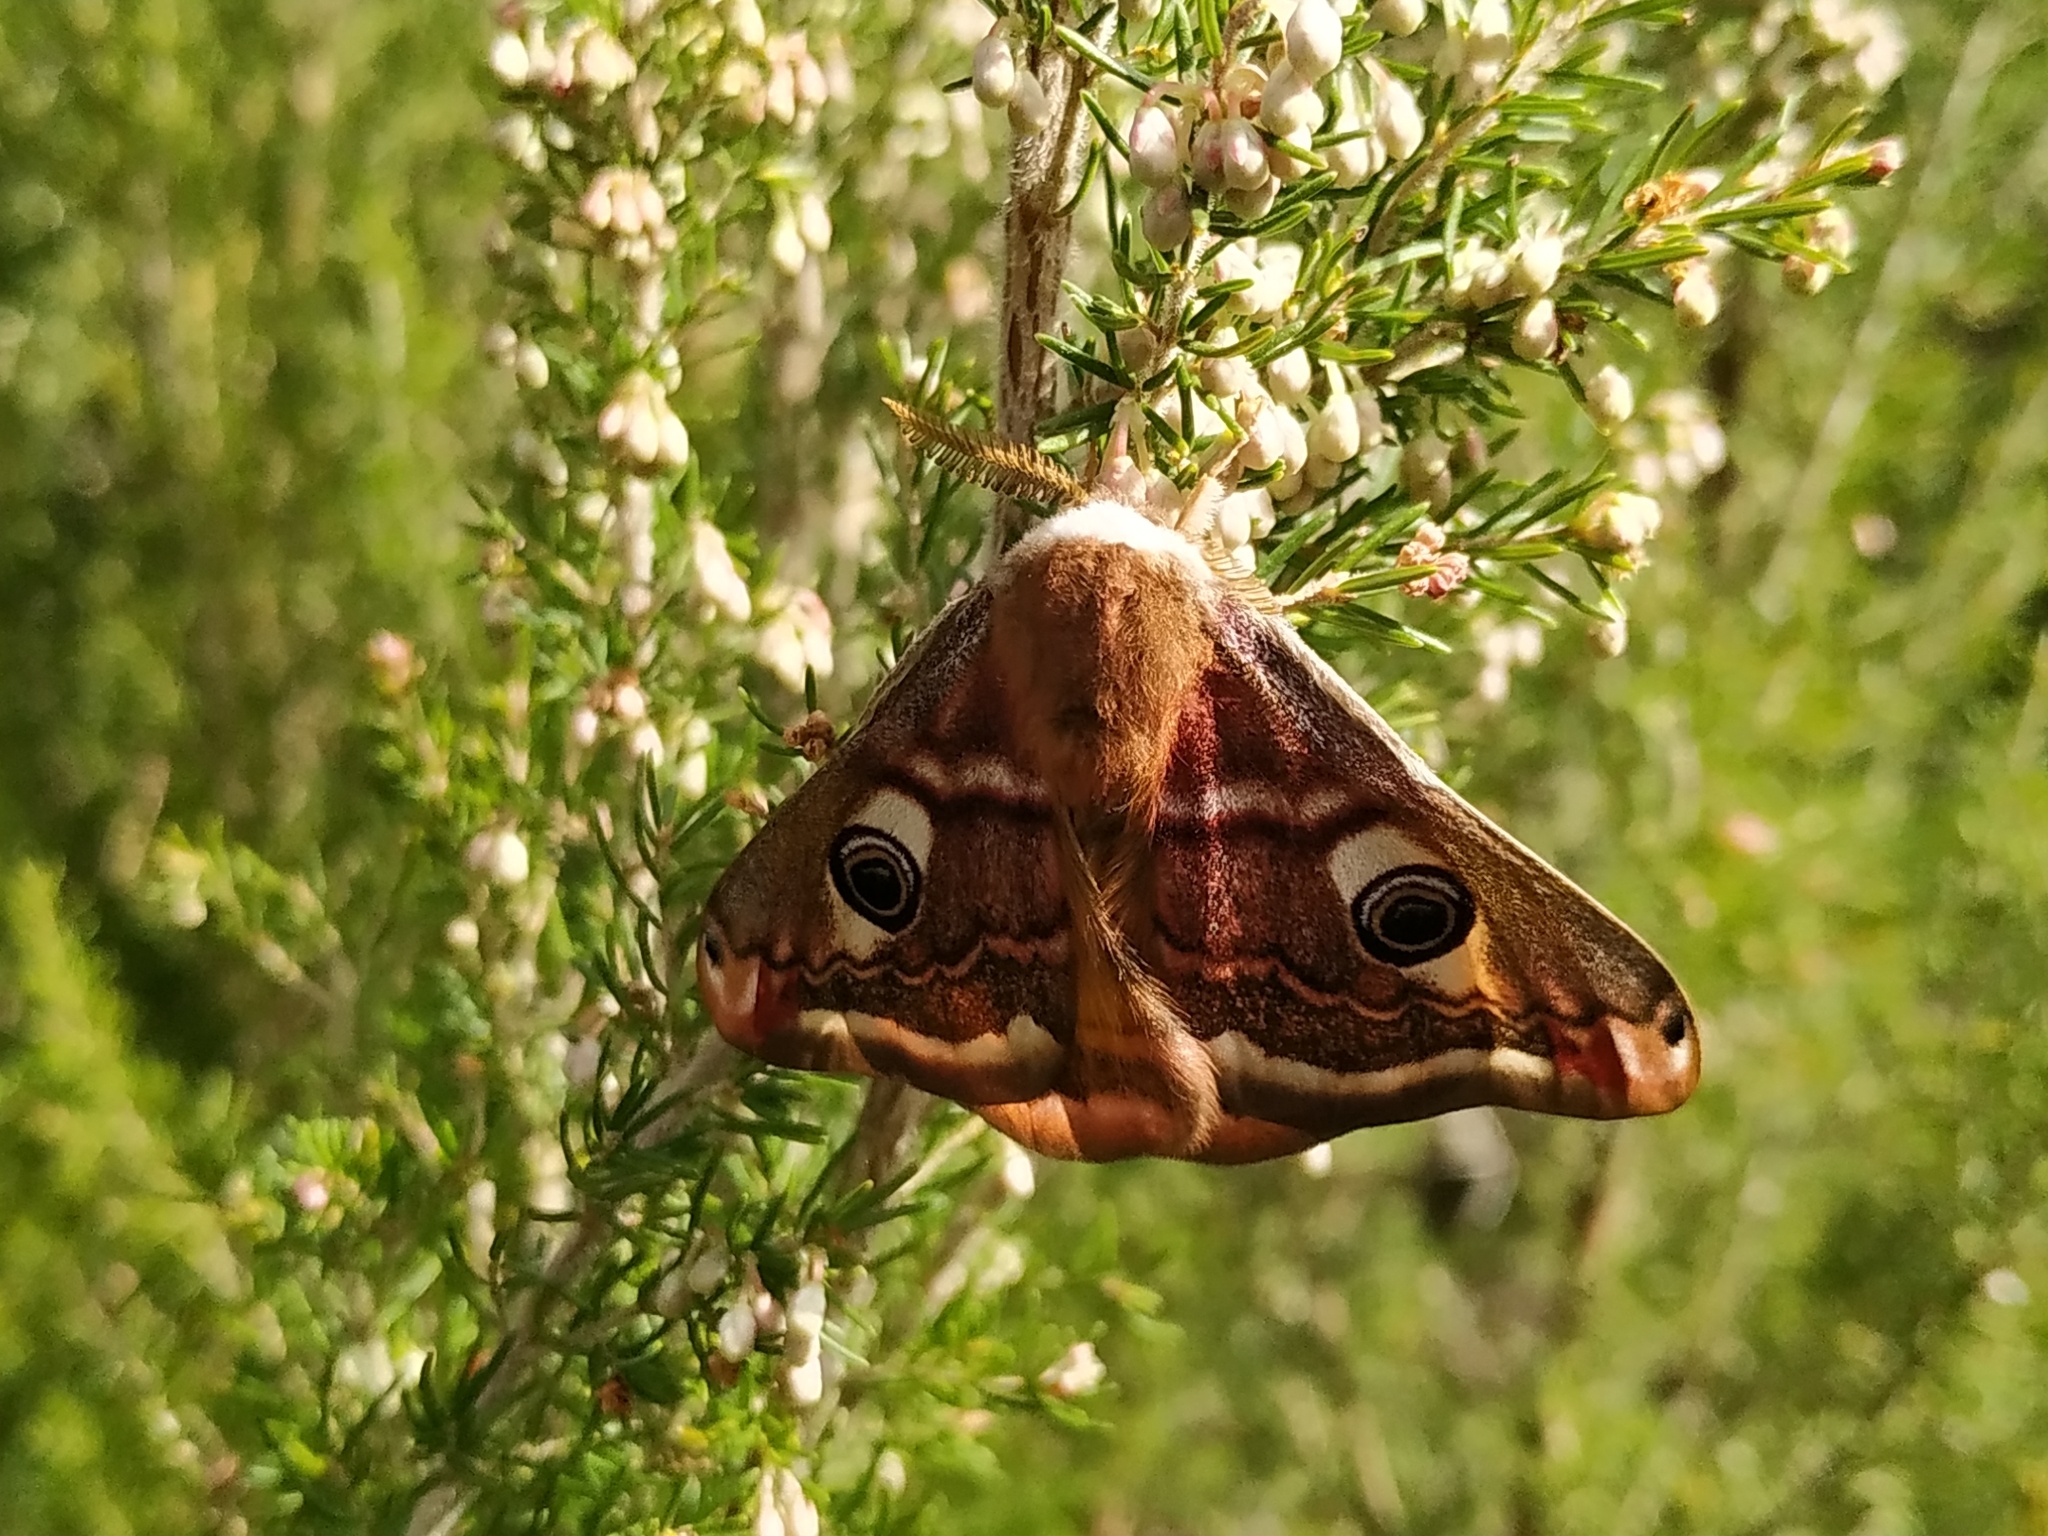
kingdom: Animalia
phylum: Arthropoda
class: Insecta
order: Lepidoptera
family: Saturniidae
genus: Saturnia
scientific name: Saturnia pavonia
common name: Emperor moth
